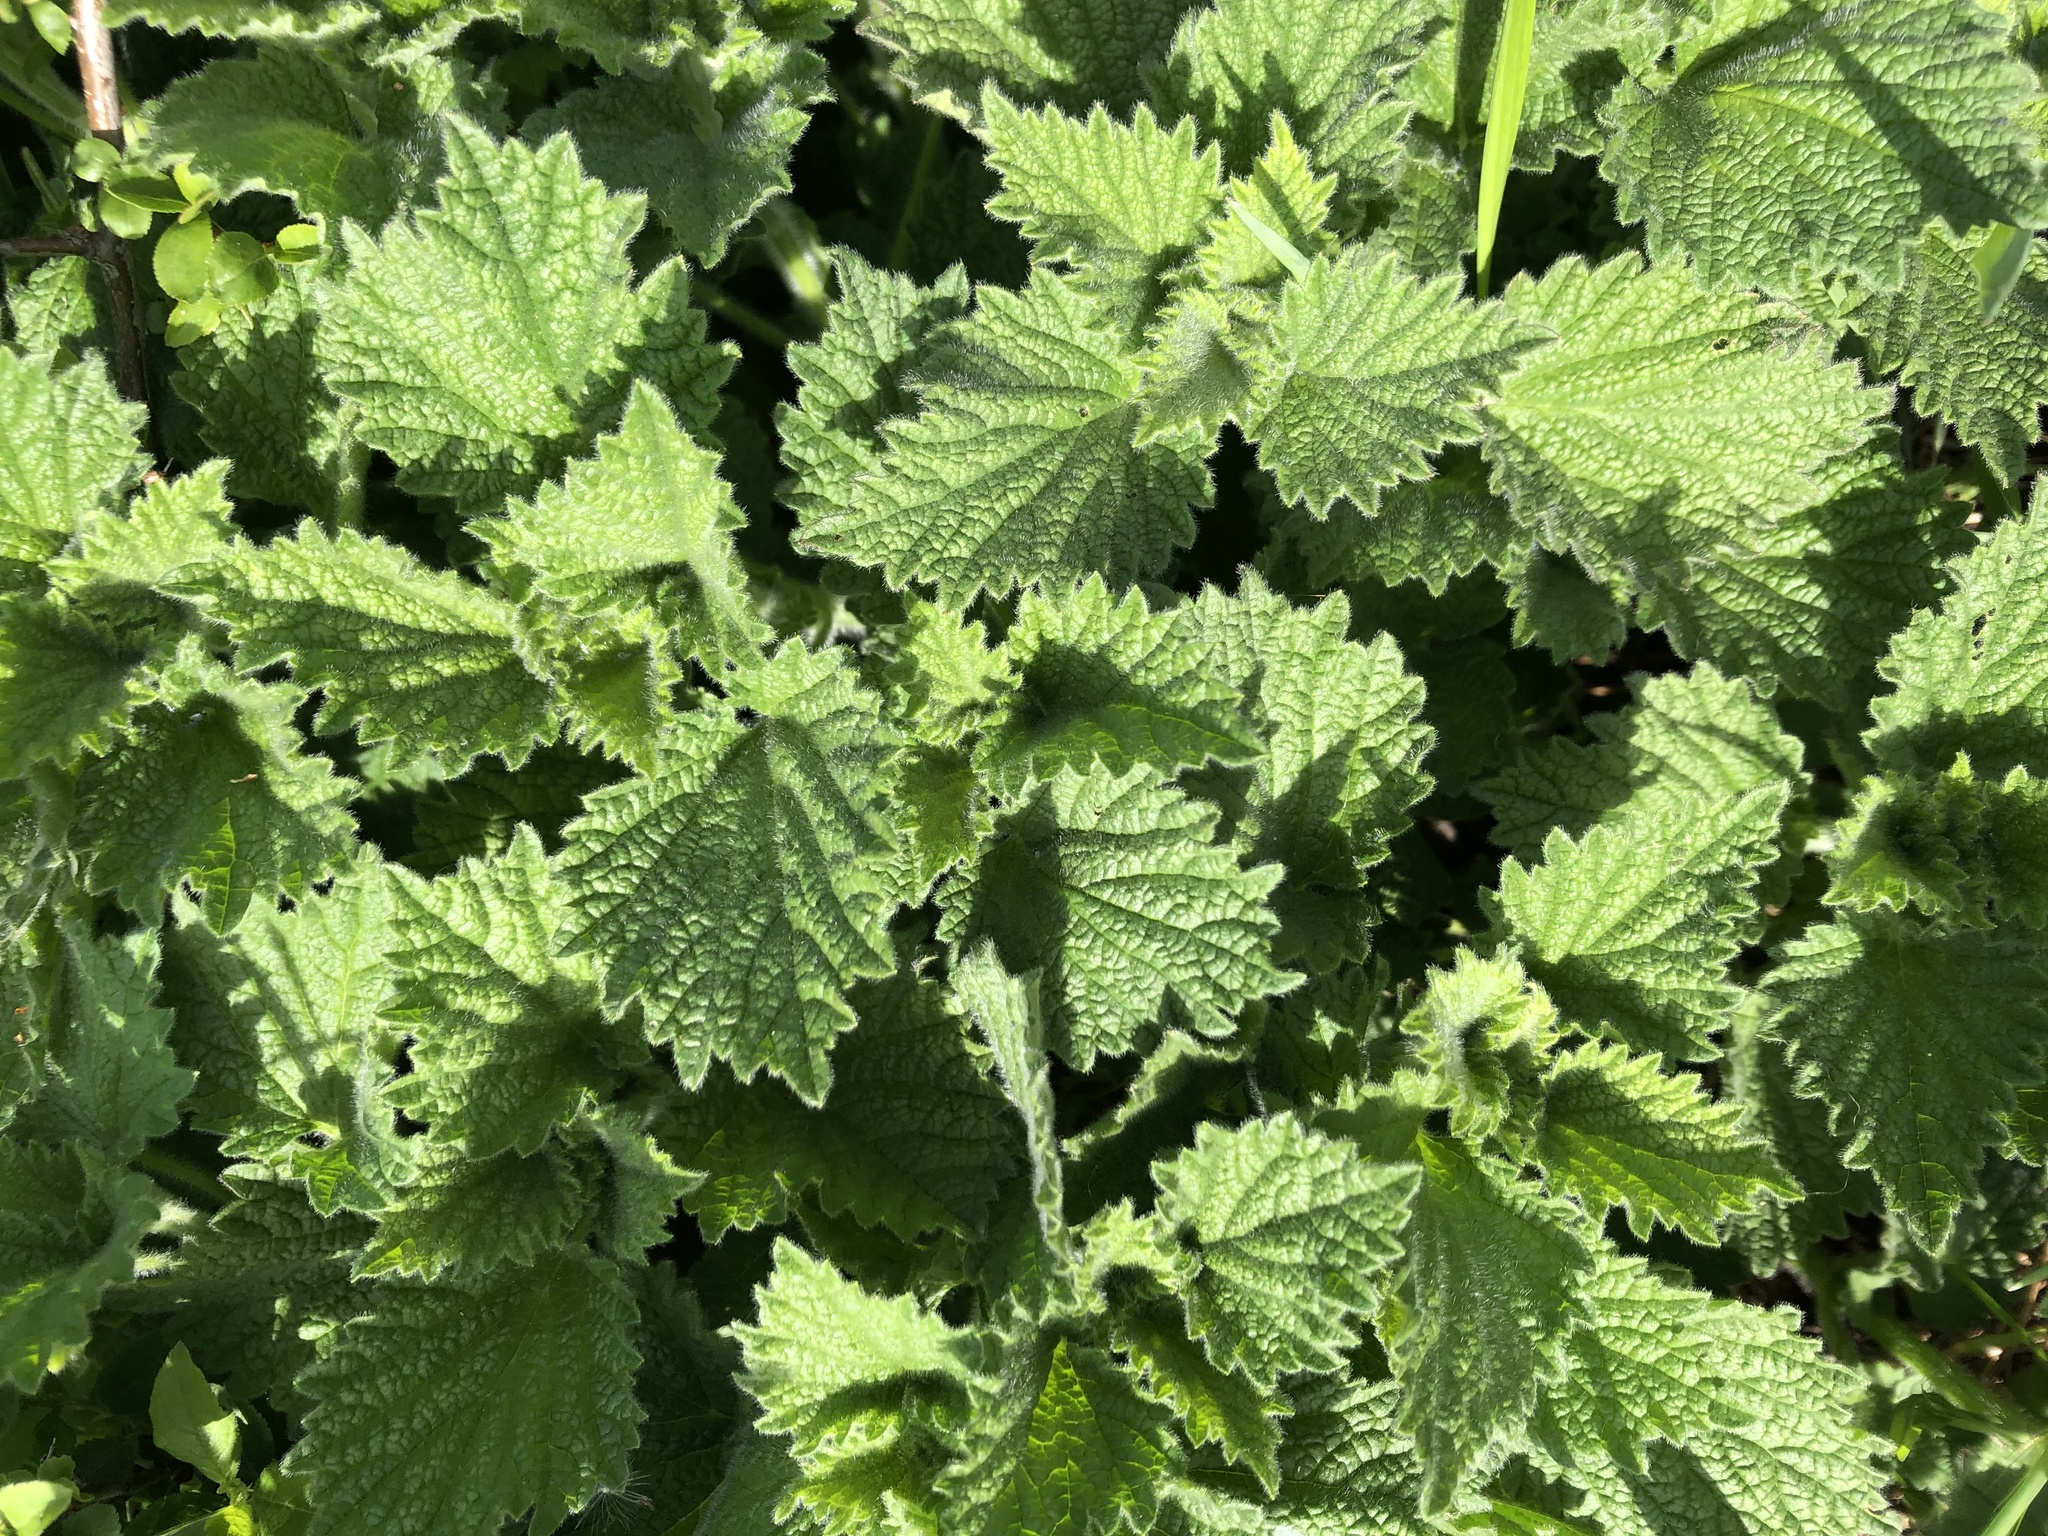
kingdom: Plantae
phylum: Tracheophyta
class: Magnoliopsida
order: Lamiales
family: Lamiaceae
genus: Ballota
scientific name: Ballota nigra
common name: Black horehound
